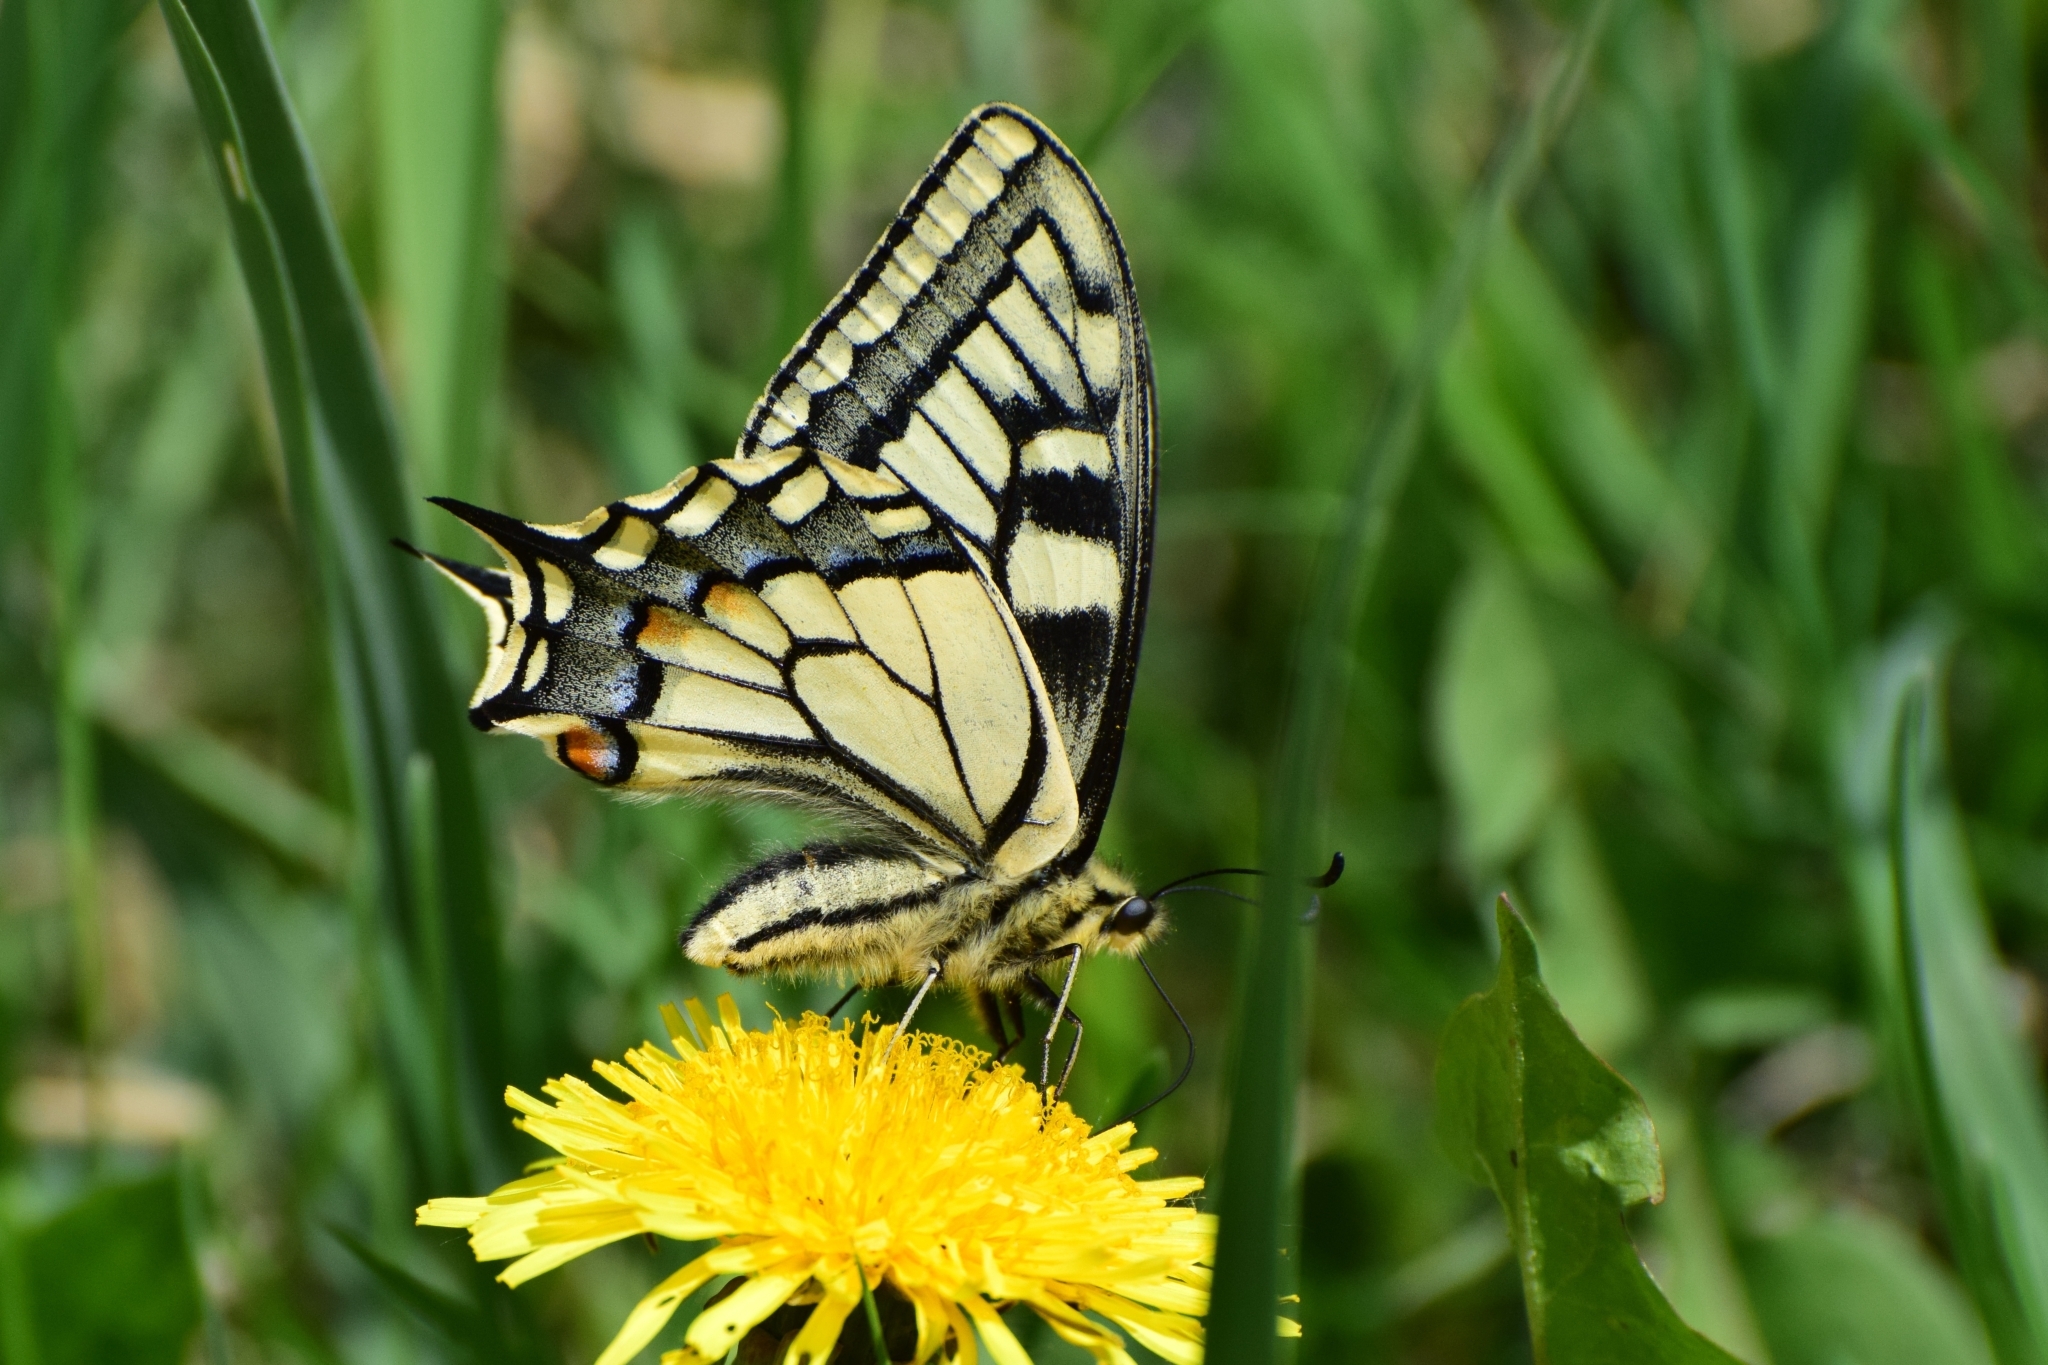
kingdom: Animalia
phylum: Arthropoda
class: Insecta
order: Lepidoptera
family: Papilionidae
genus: Papilio
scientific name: Papilio machaon
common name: Swallowtail
